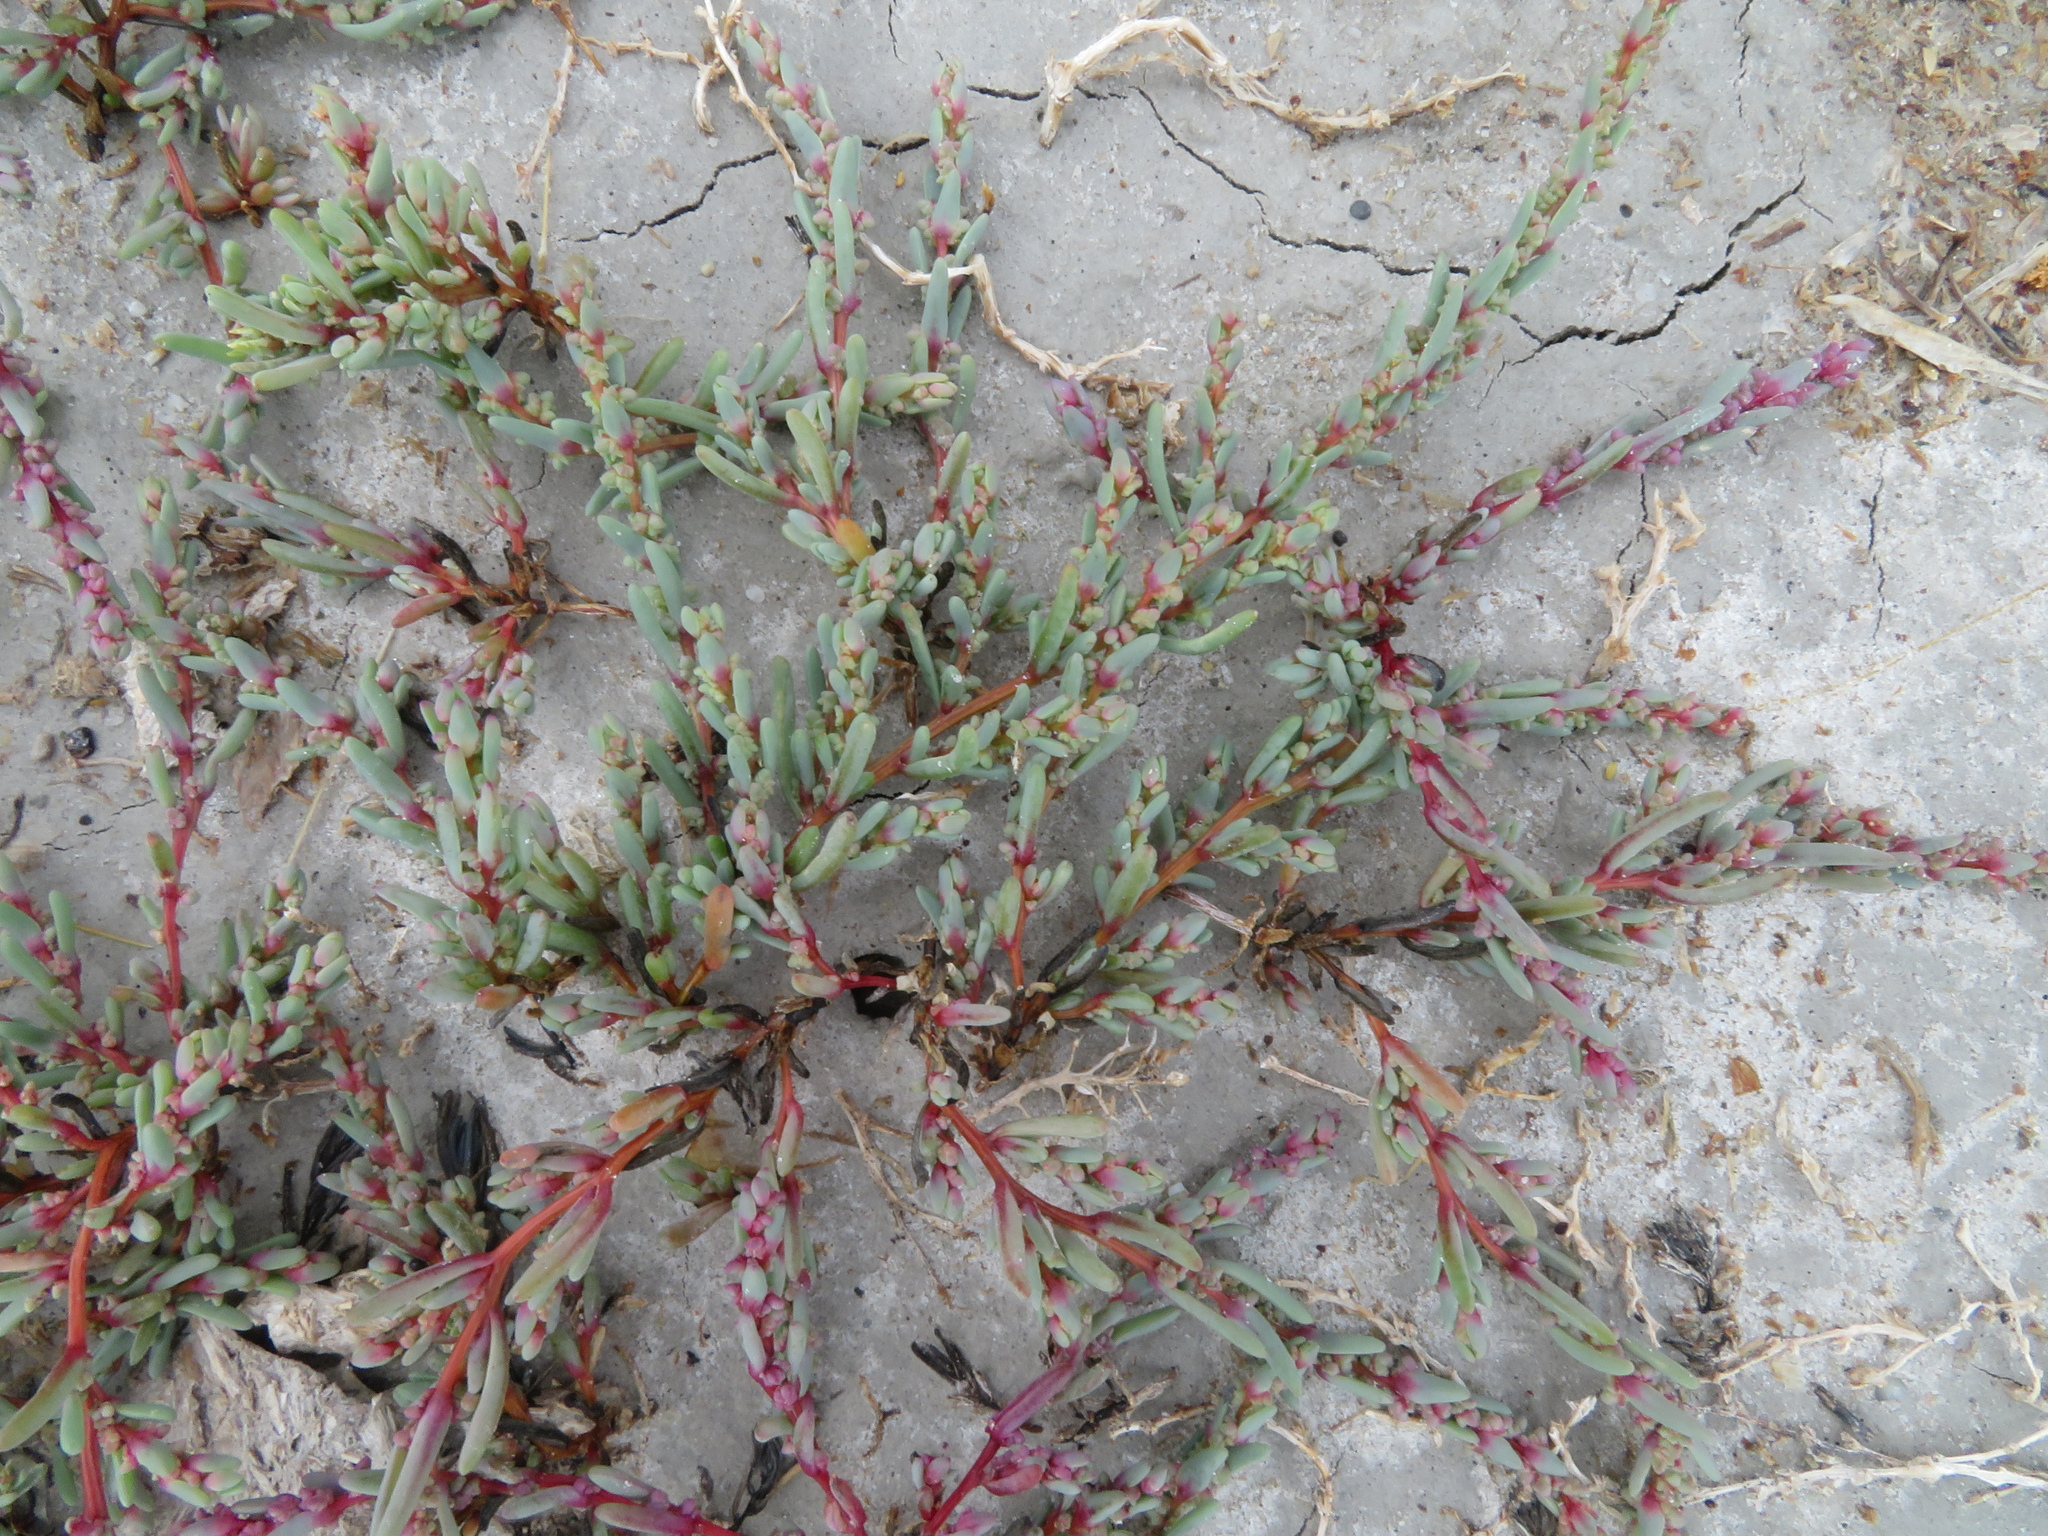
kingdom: Plantae
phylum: Tracheophyta
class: Magnoliopsida
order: Caryophyllales
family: Amaranthaceae
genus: Suaeda
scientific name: Suaeda pannonica
